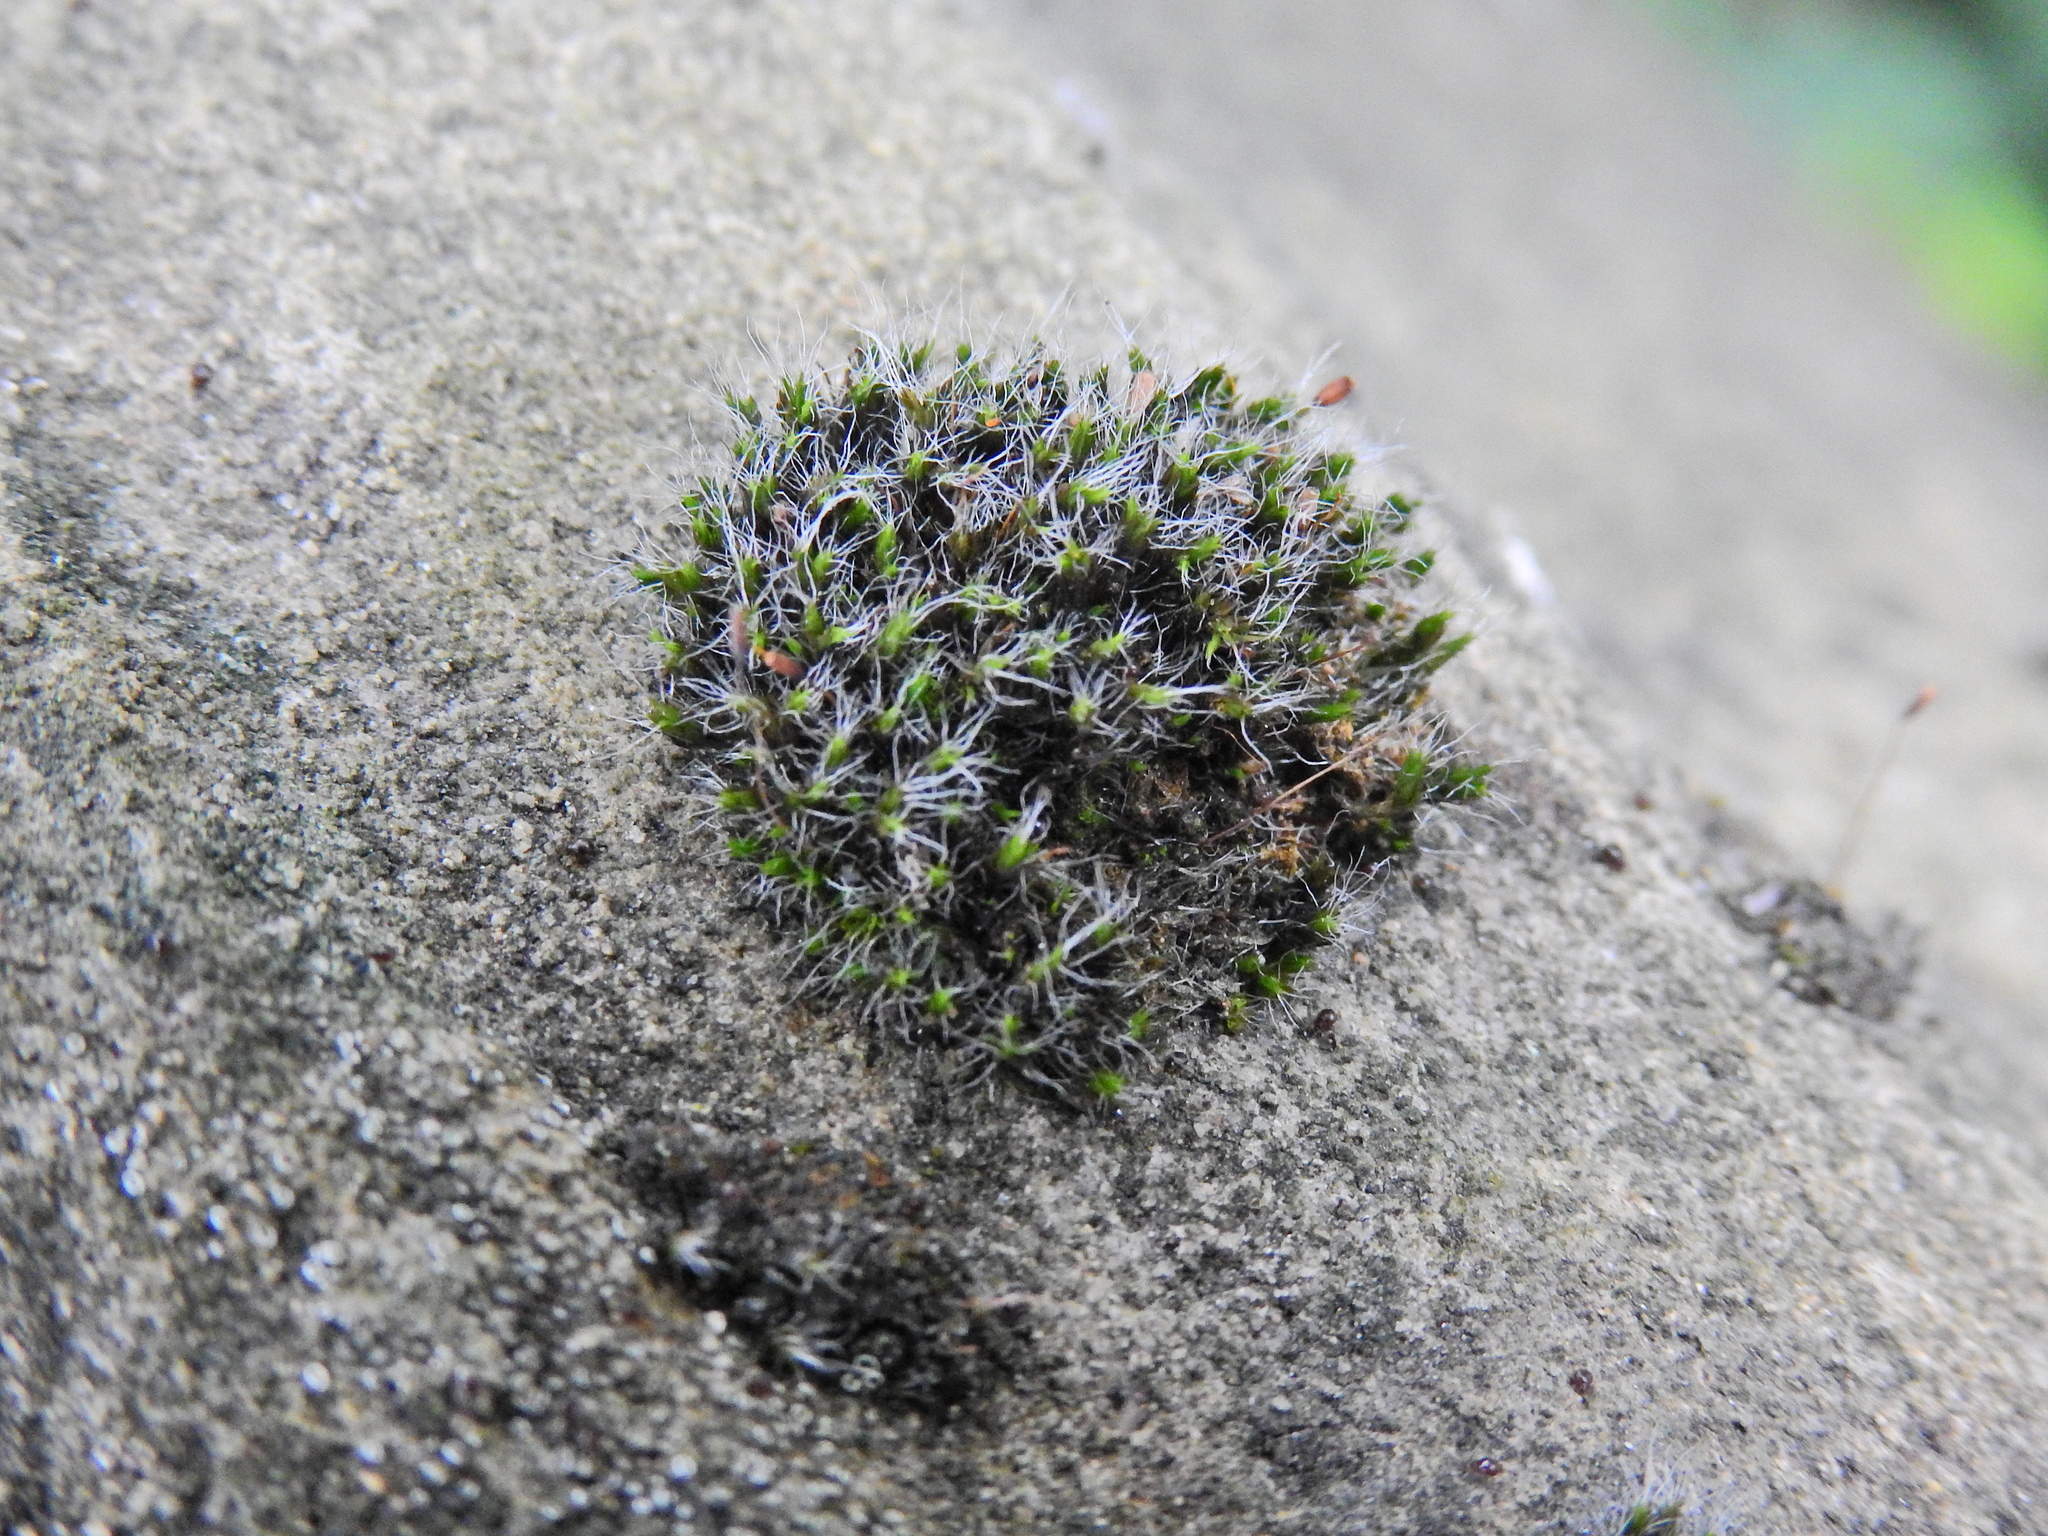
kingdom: Plantae
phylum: Bryophyta
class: Bryopsida
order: Grimmiales
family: Grimmiaceae
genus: Grimmia
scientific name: Grimmia pulvinata
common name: Grey-cushioned grimmia
